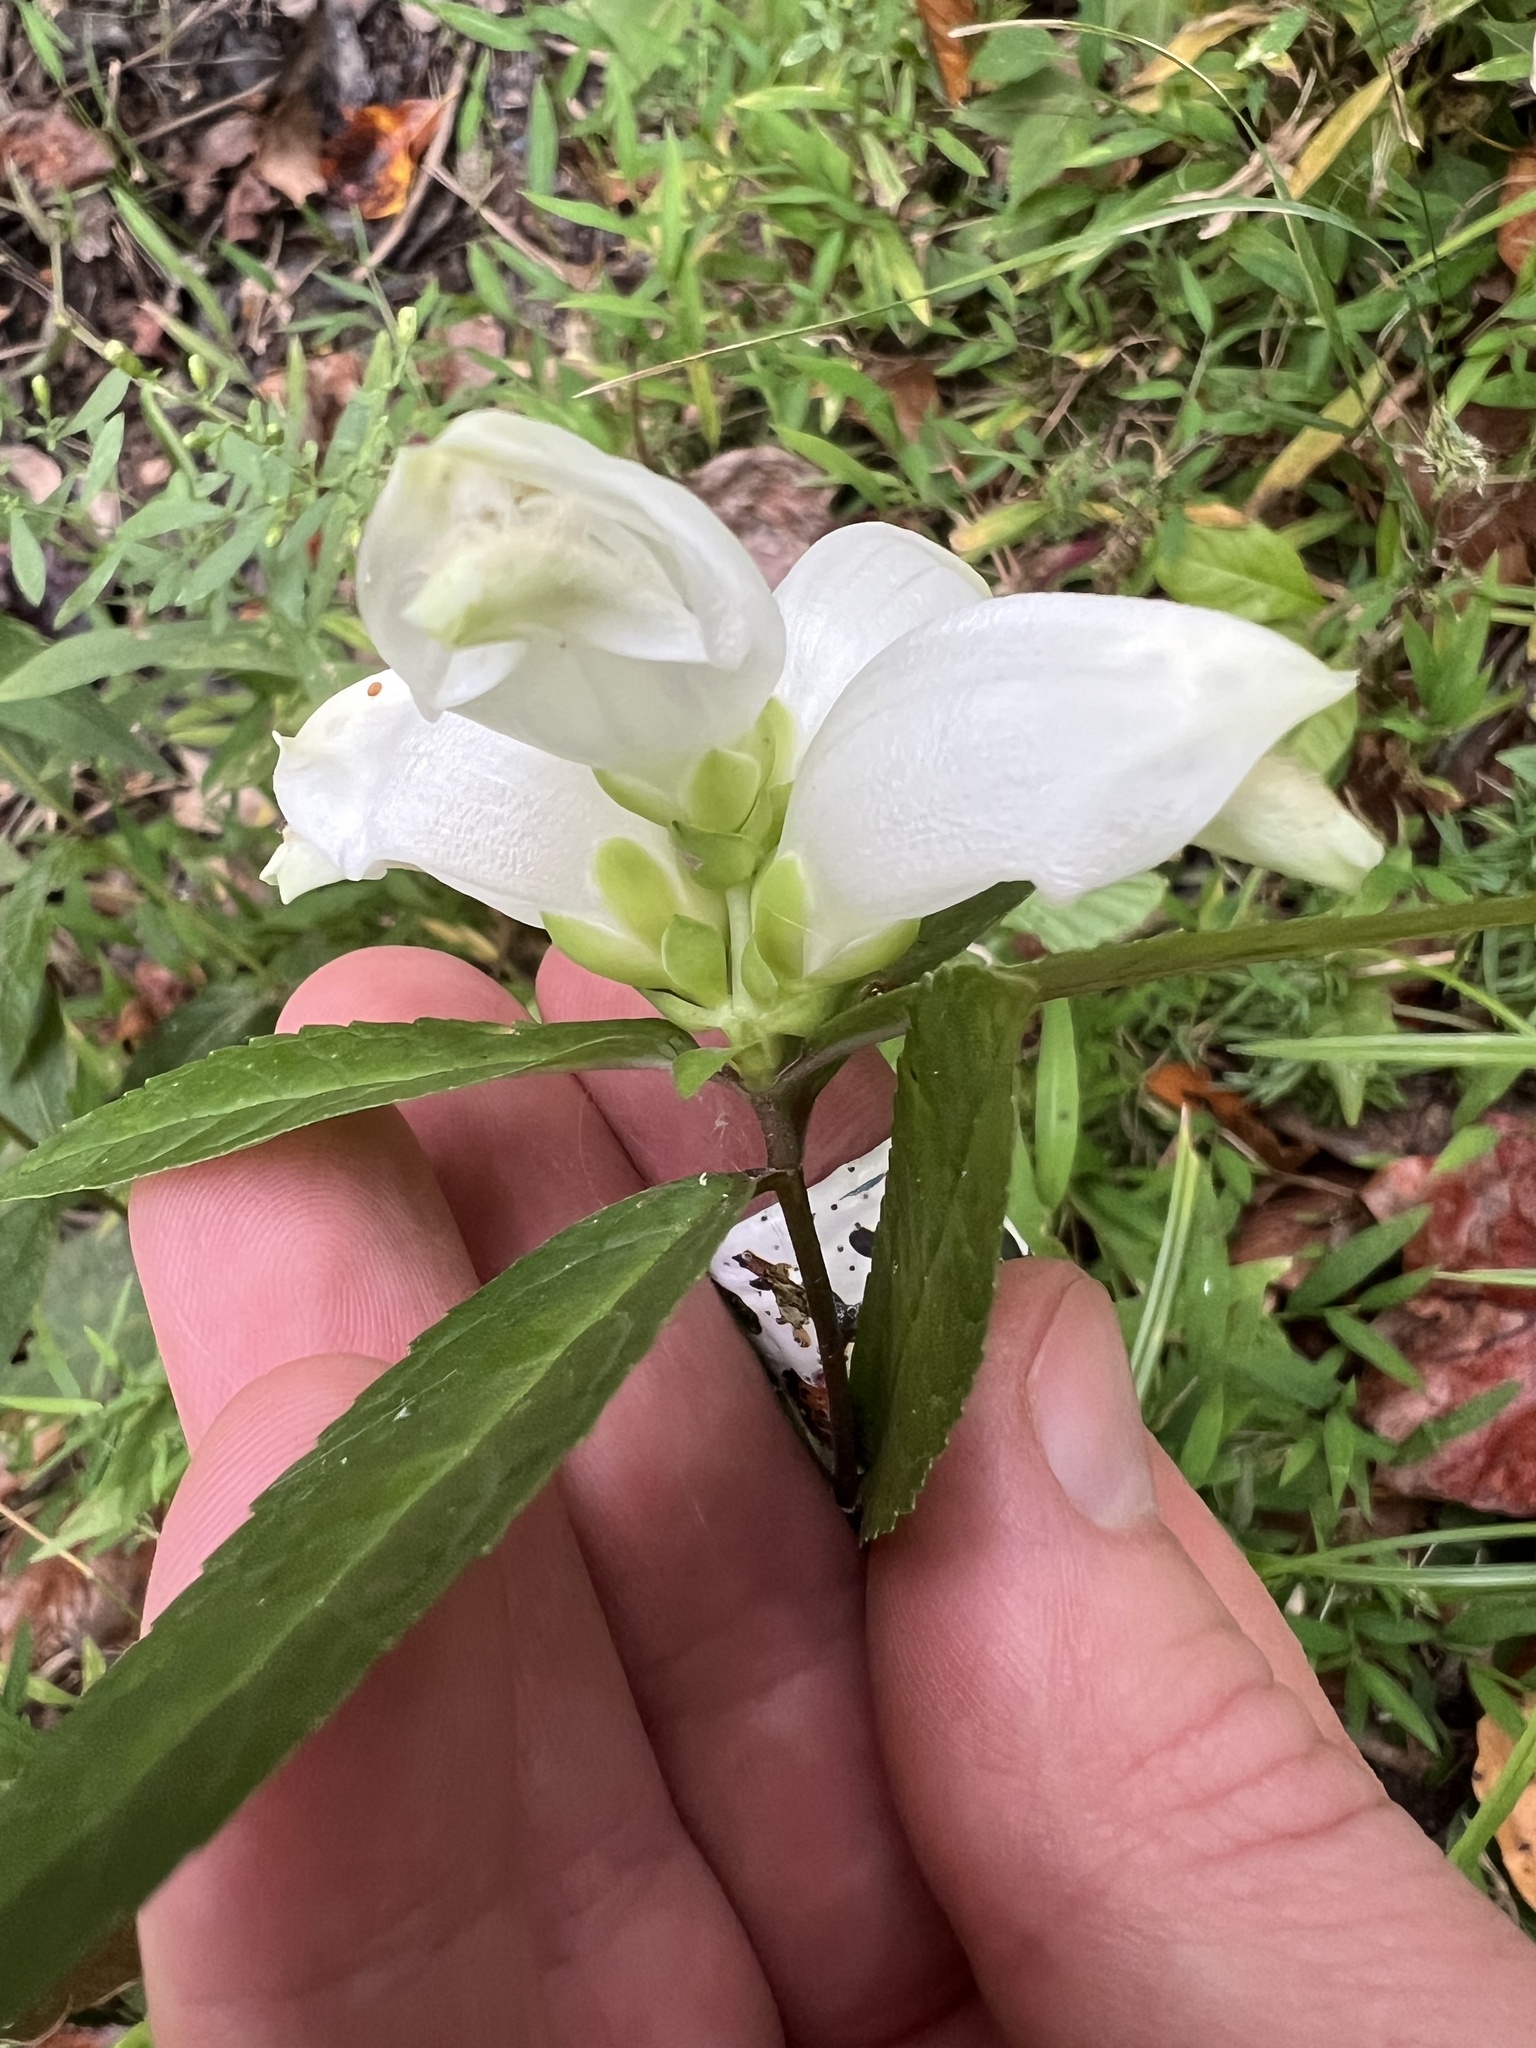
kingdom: Plantae
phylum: Tracheophyta
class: Magnoliopsida
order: Lamiales
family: Plantaginaceae
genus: Chelone
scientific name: Chelone glabra
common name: Snakehead
